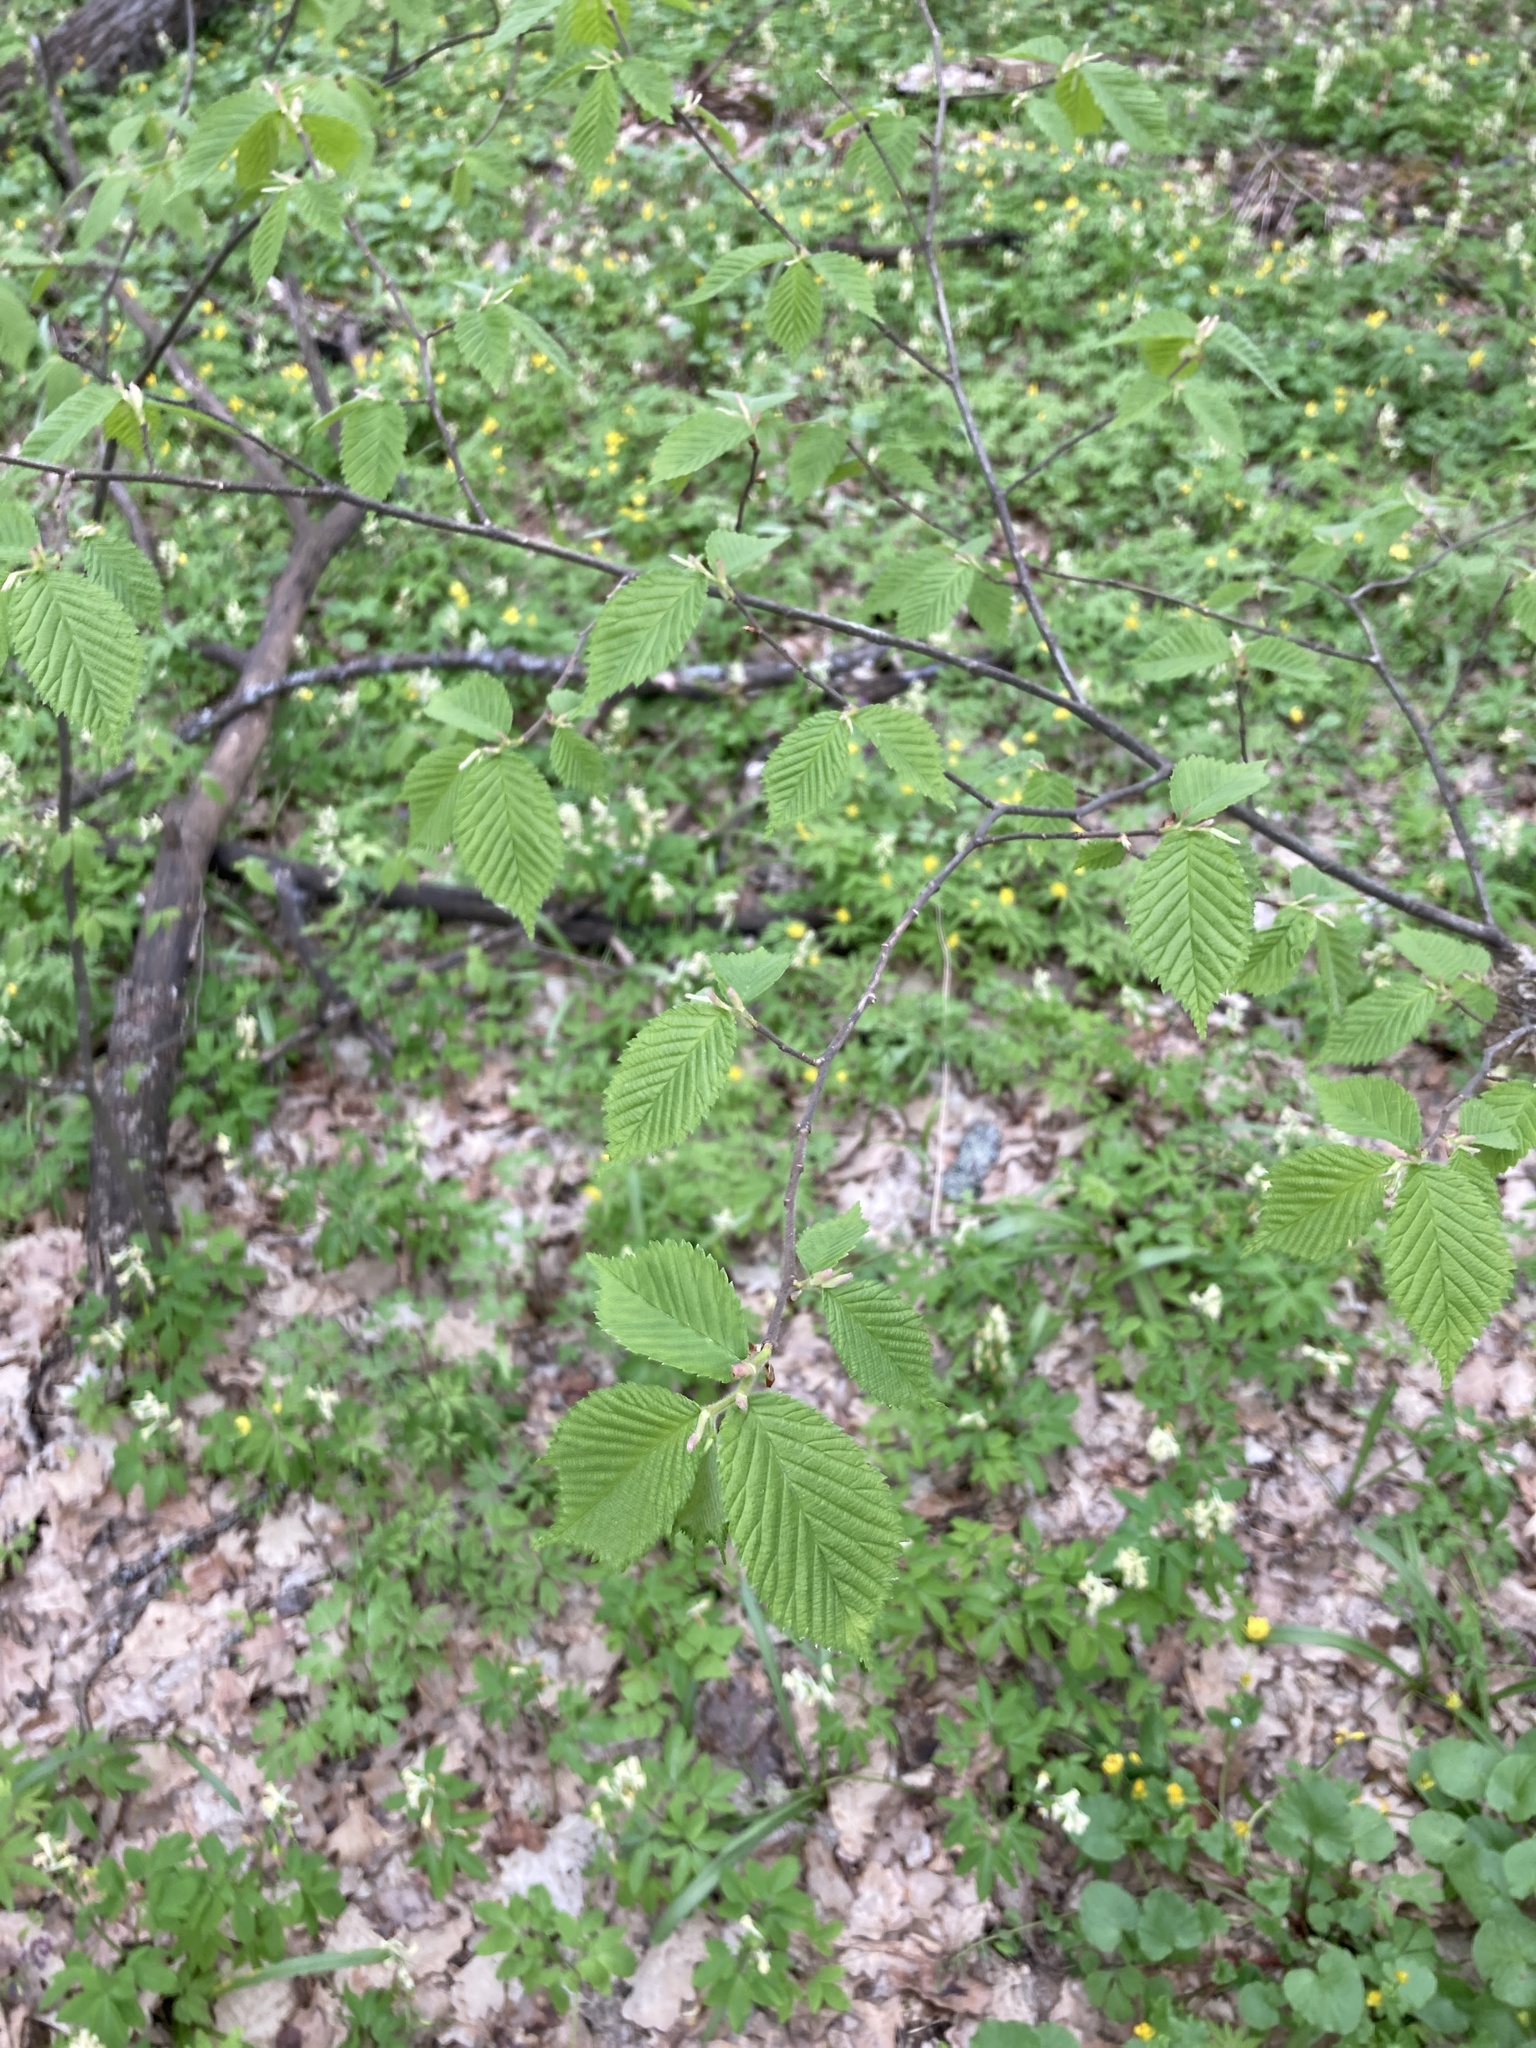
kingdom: Plantae
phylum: Tracheophyta
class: Magnoliopsida
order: Fagales
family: Betulaceae
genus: Corylus
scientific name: Corylus avellana
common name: European hazel
